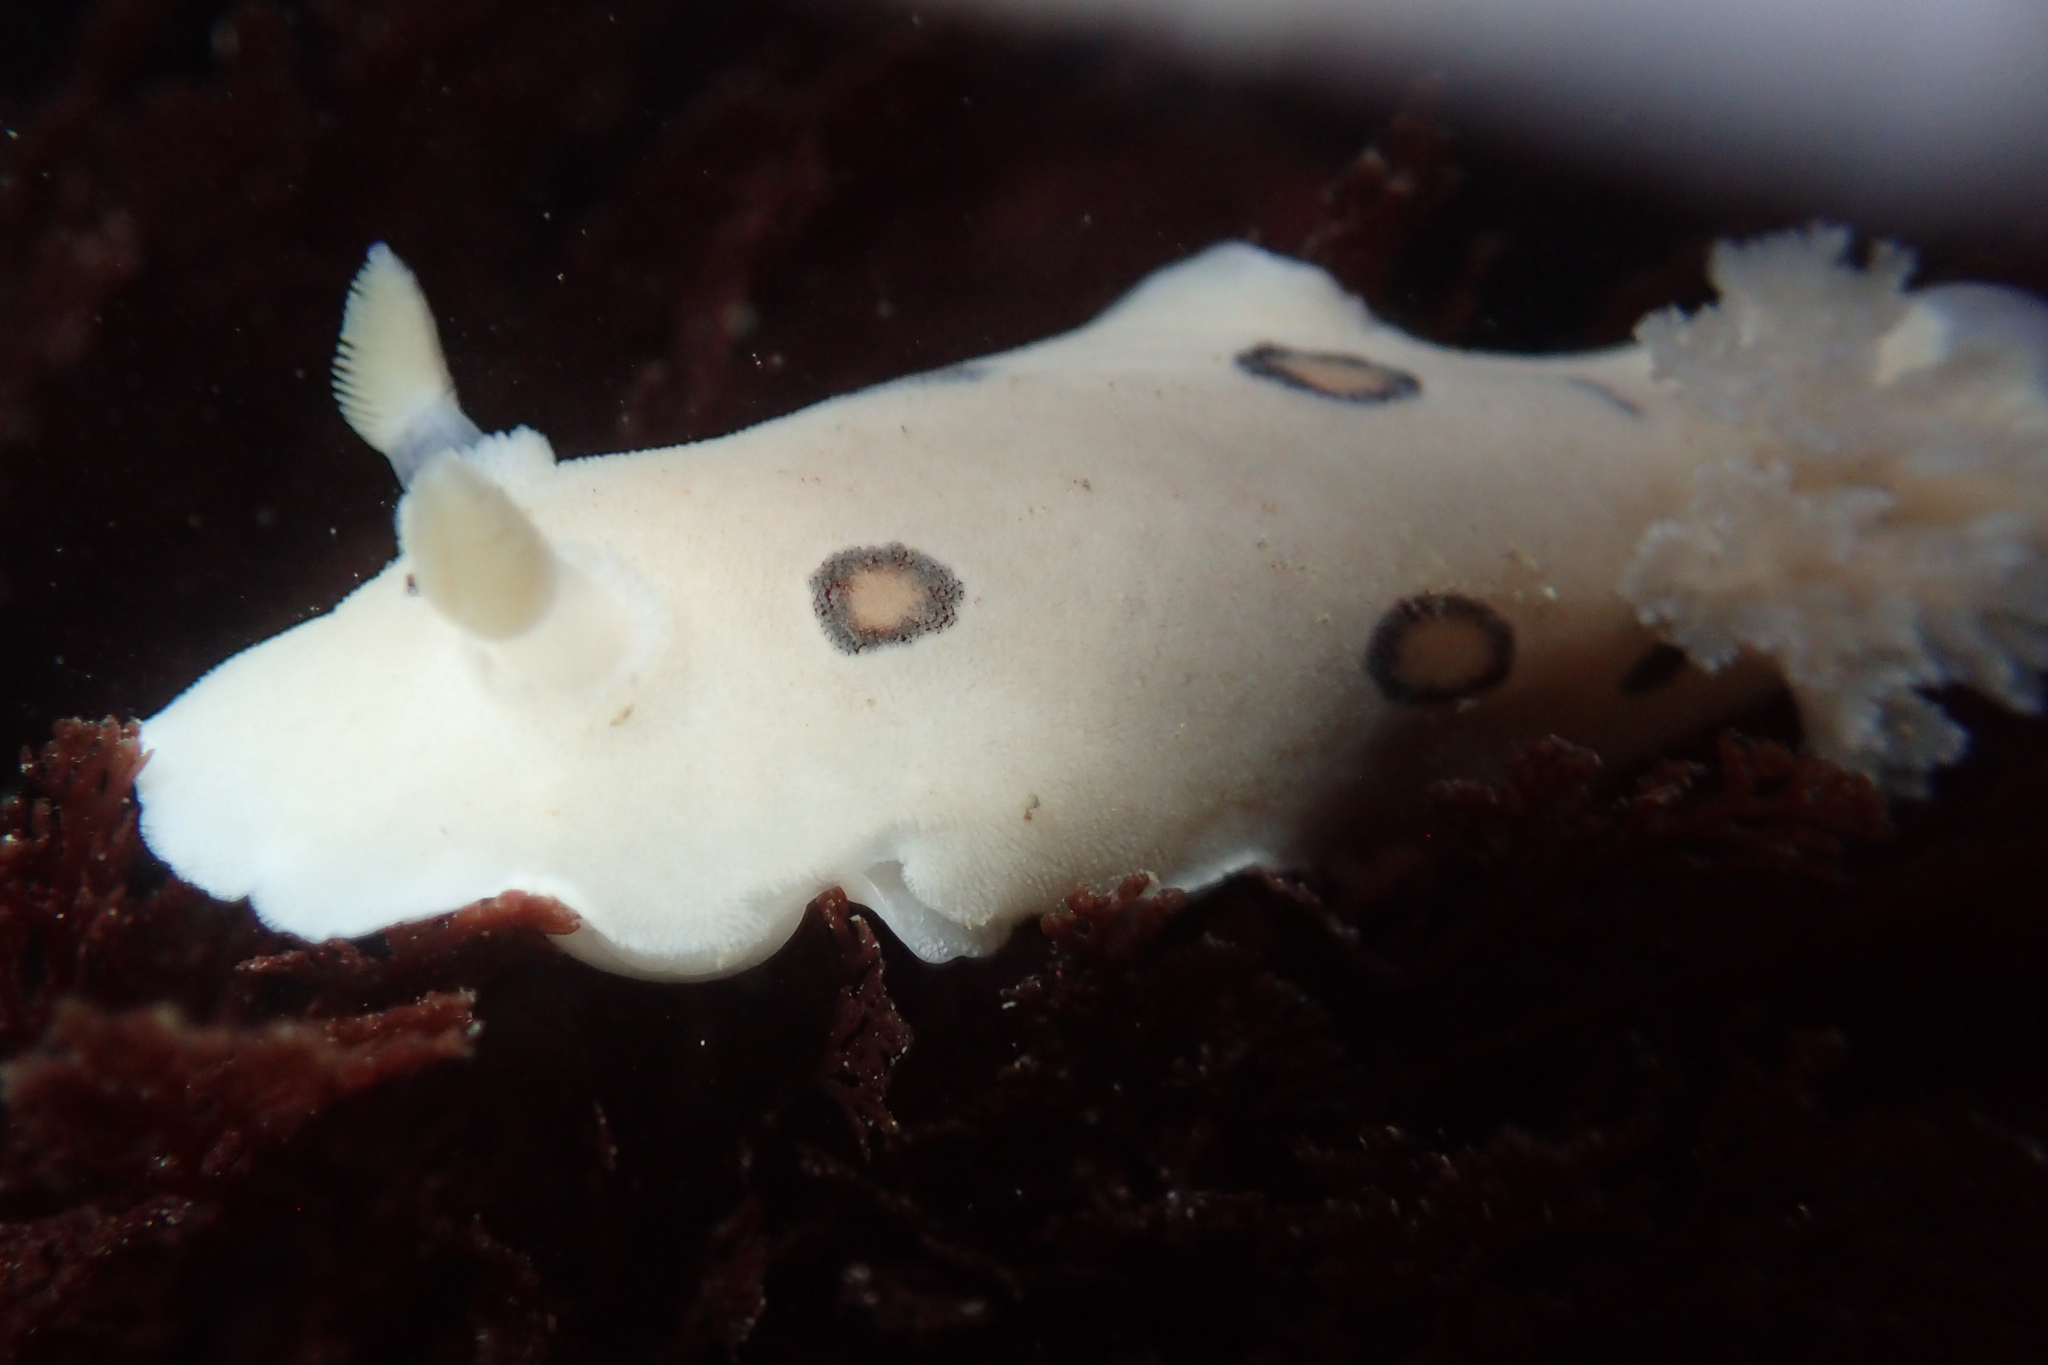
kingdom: Animalia
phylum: Mollusca
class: Gastropoda
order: Nudibranchia
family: Discodorididae
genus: Diaulula
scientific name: Diaulula sandiegensis
